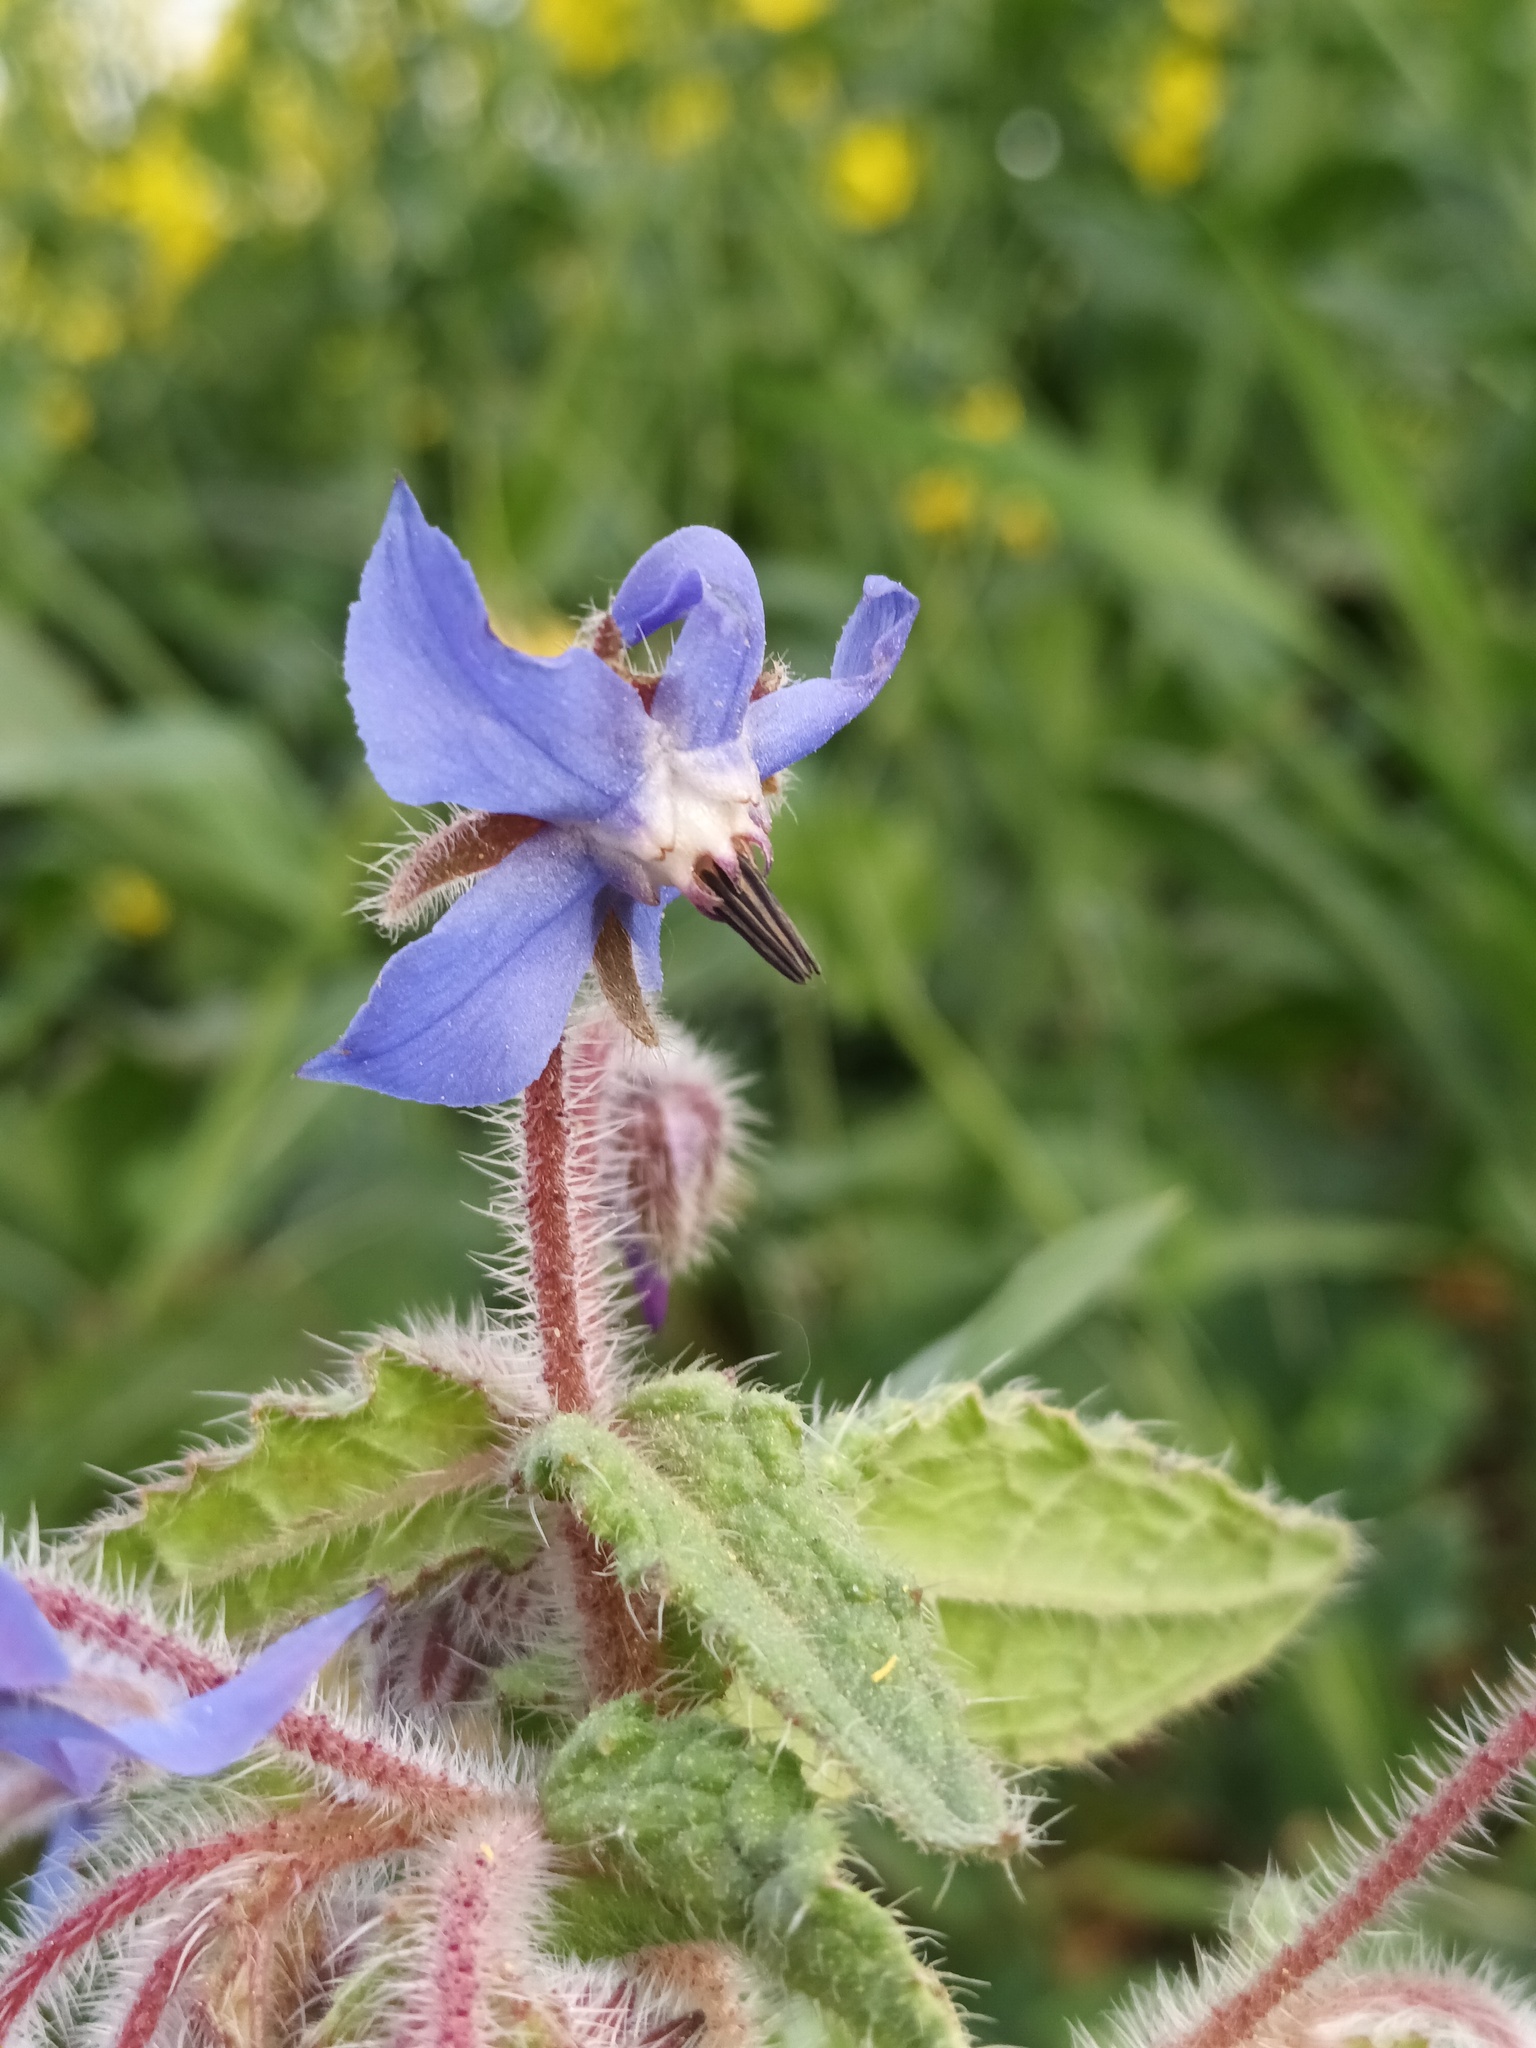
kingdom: Plantae
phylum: Tracheophyta
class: Magnoliopsida
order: Boraginales
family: Boraginaceae
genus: Borago
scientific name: Borago officinalis
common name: Borage
